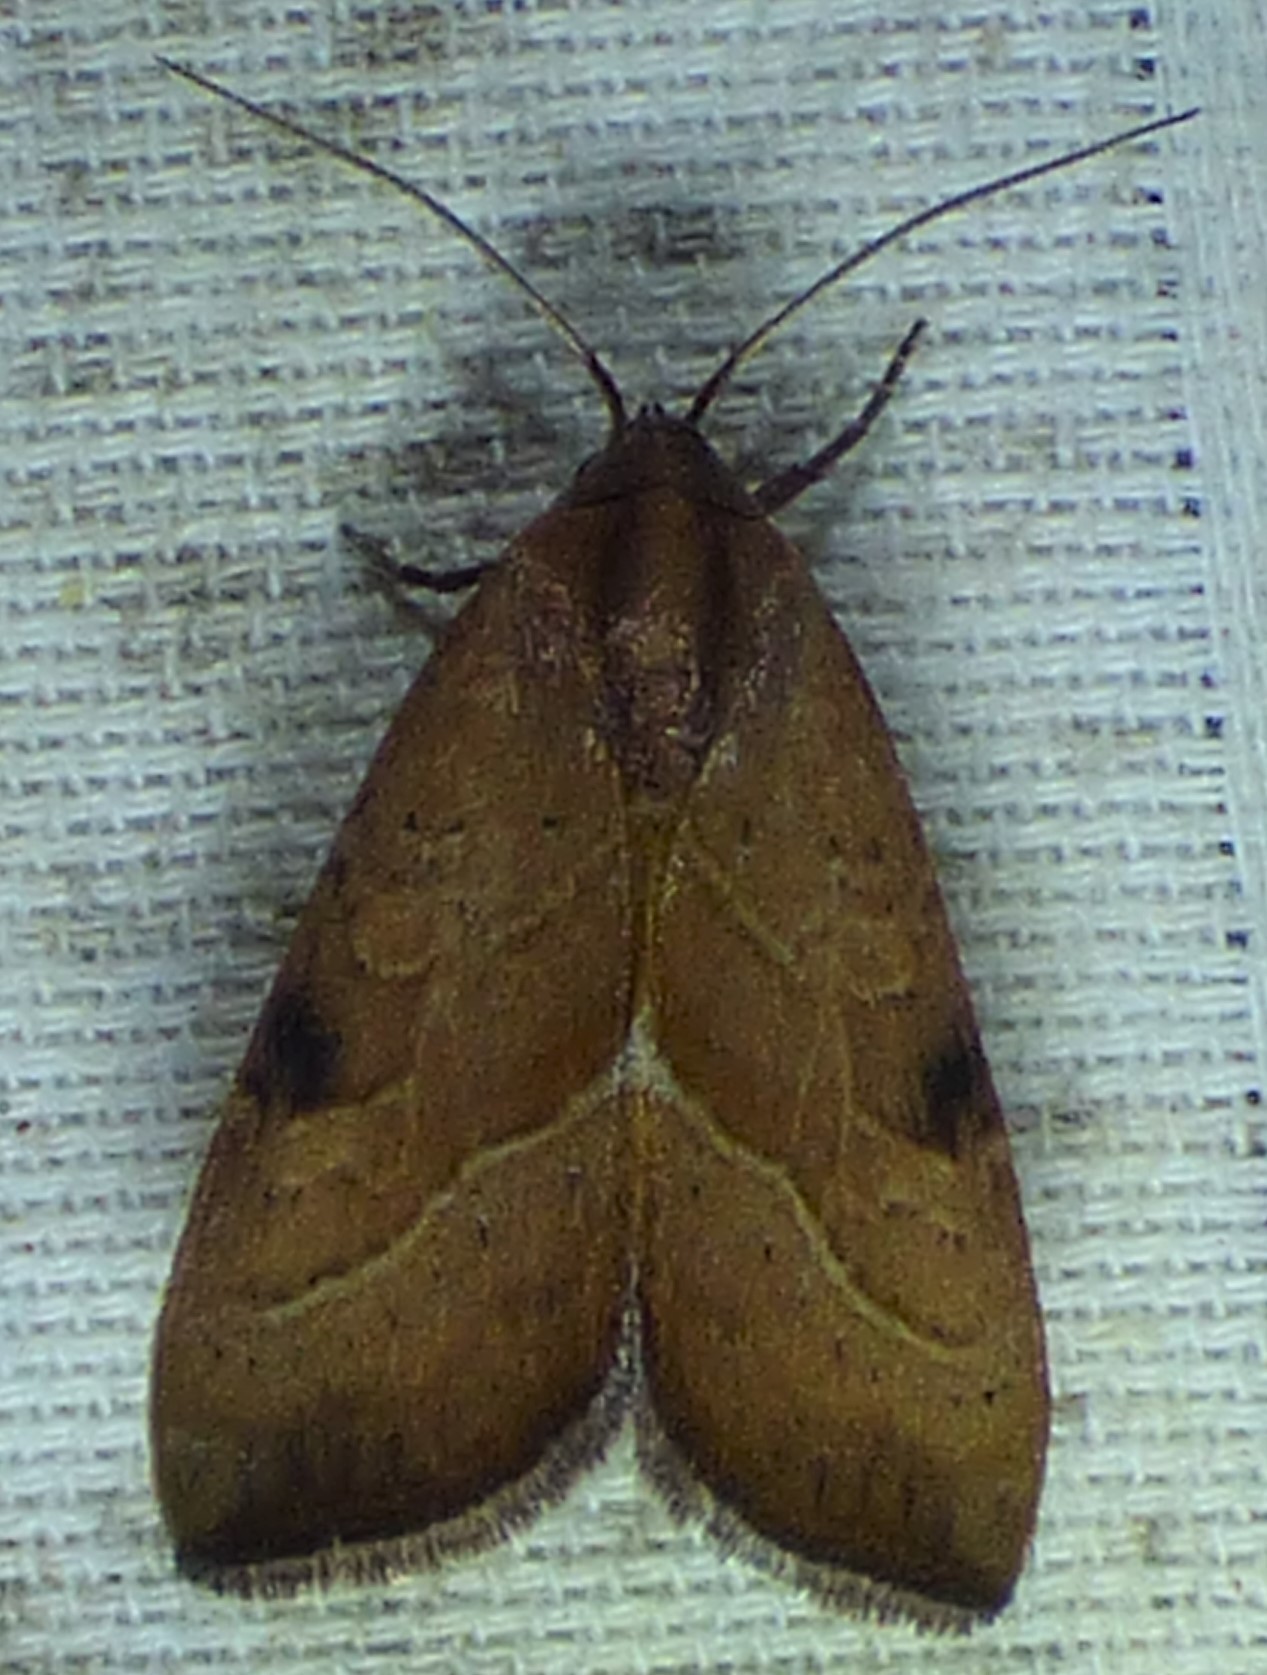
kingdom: Animalia
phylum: Arthropoda
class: Insecta
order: Lepidoptera
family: Noctuidae
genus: Galgula
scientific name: Galgula partita
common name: Wedgeling
